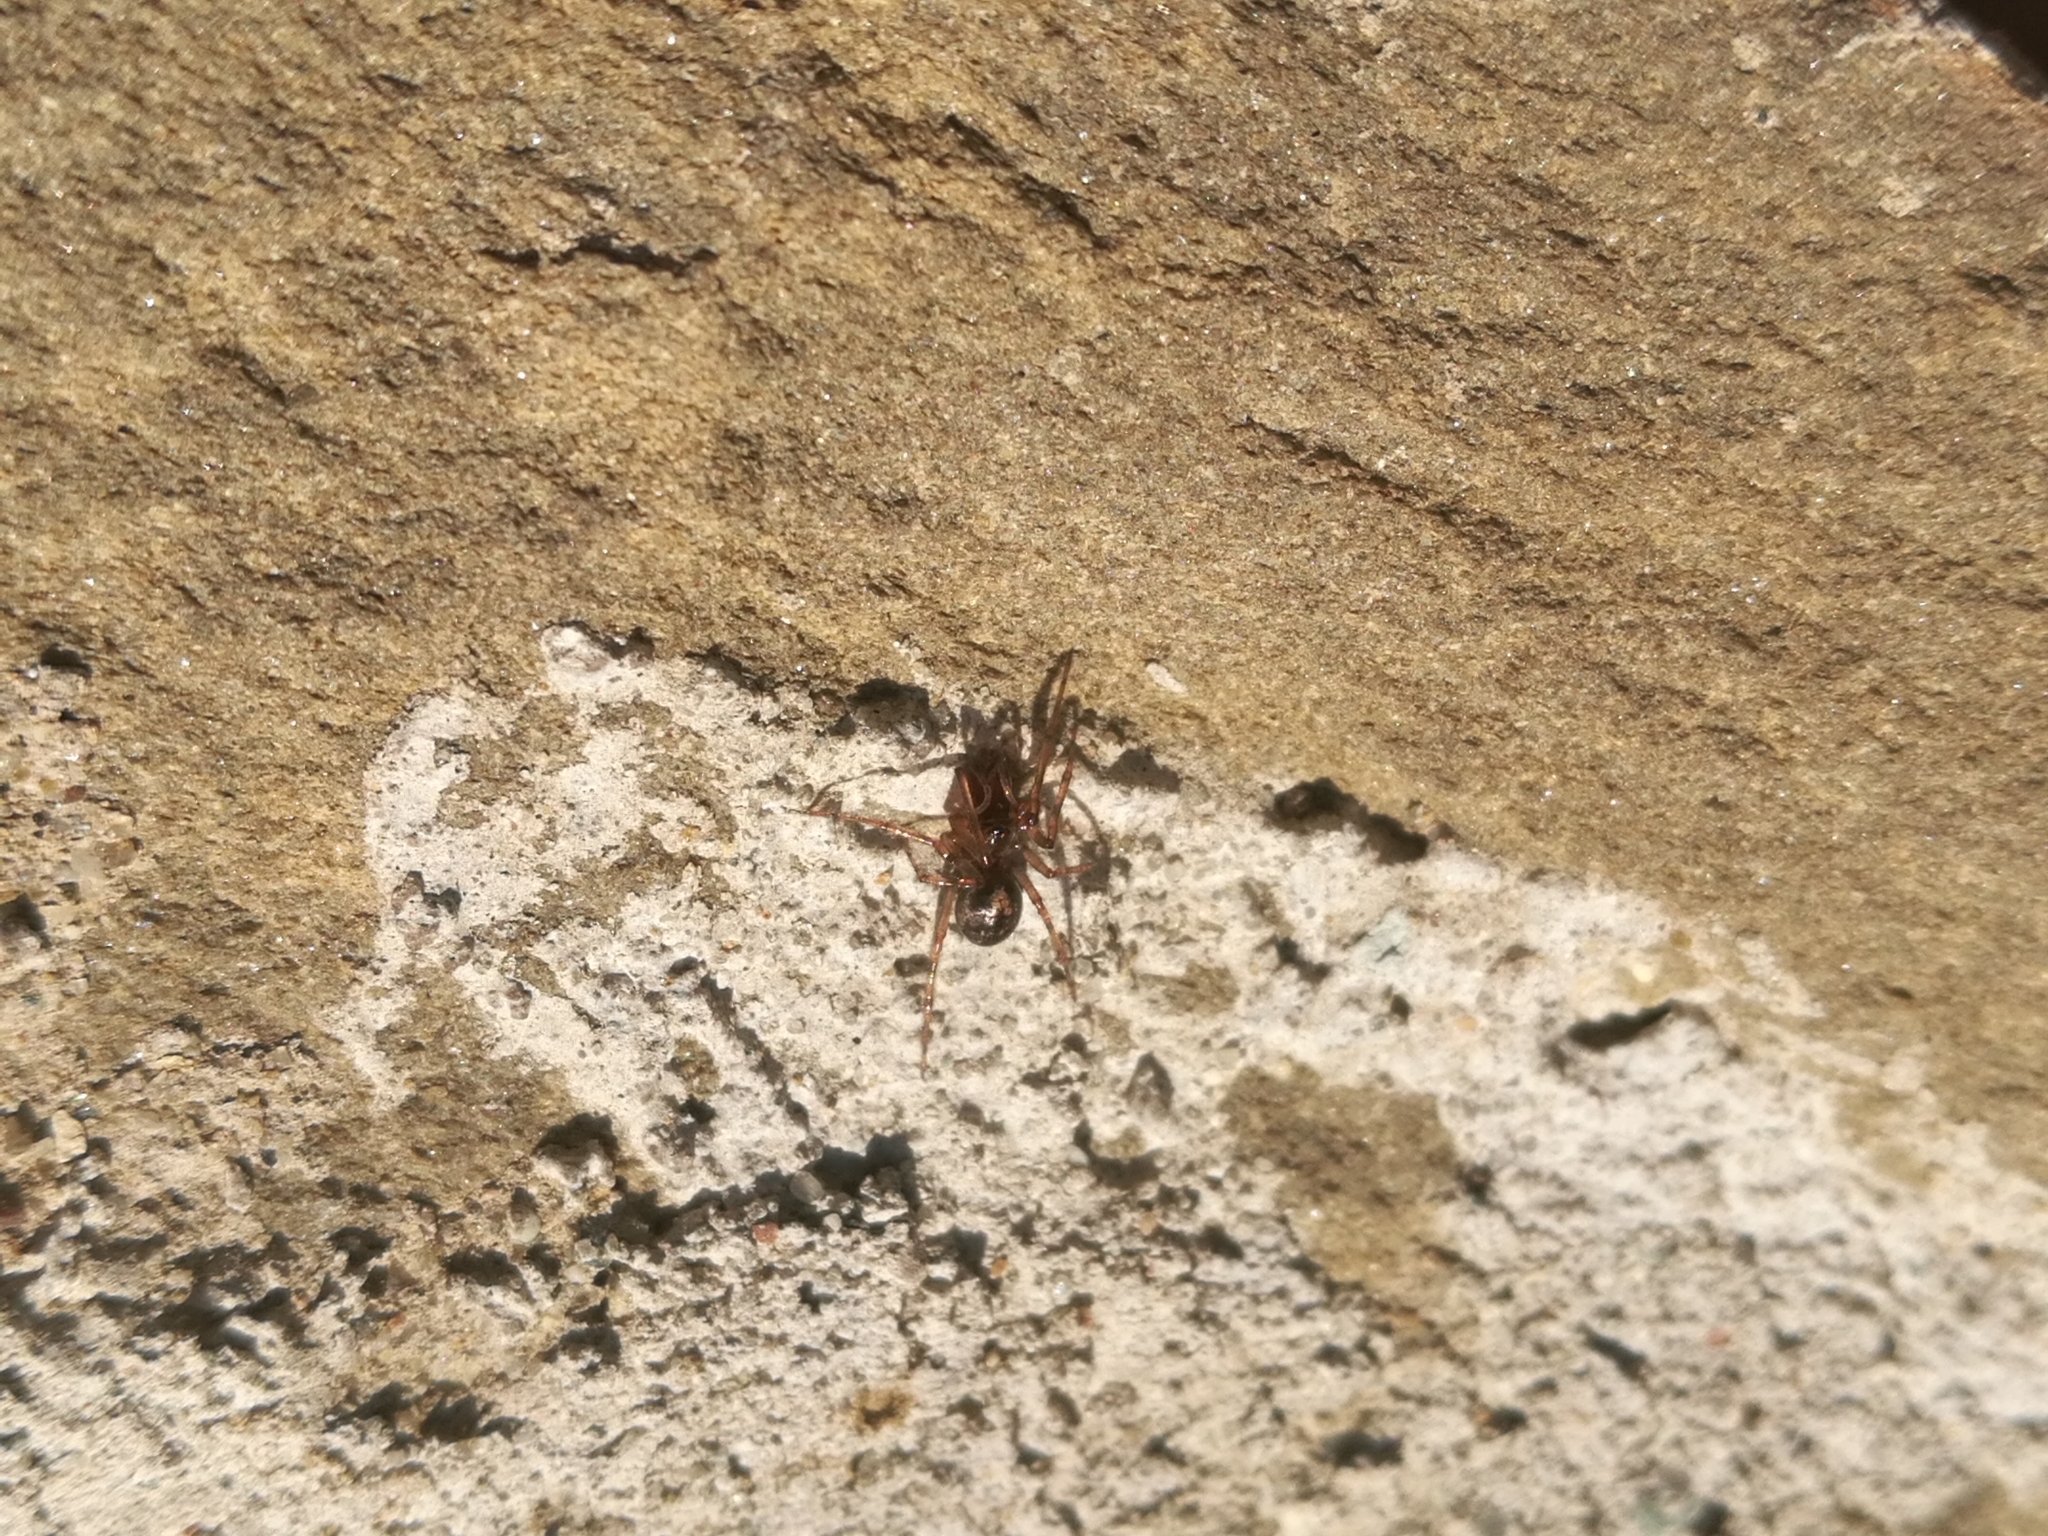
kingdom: Animalia
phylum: Arthropoda
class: Arachnida
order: Araneae
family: Theridiidae
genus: Enoplognatha
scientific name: Enoplognatha mandibularis
